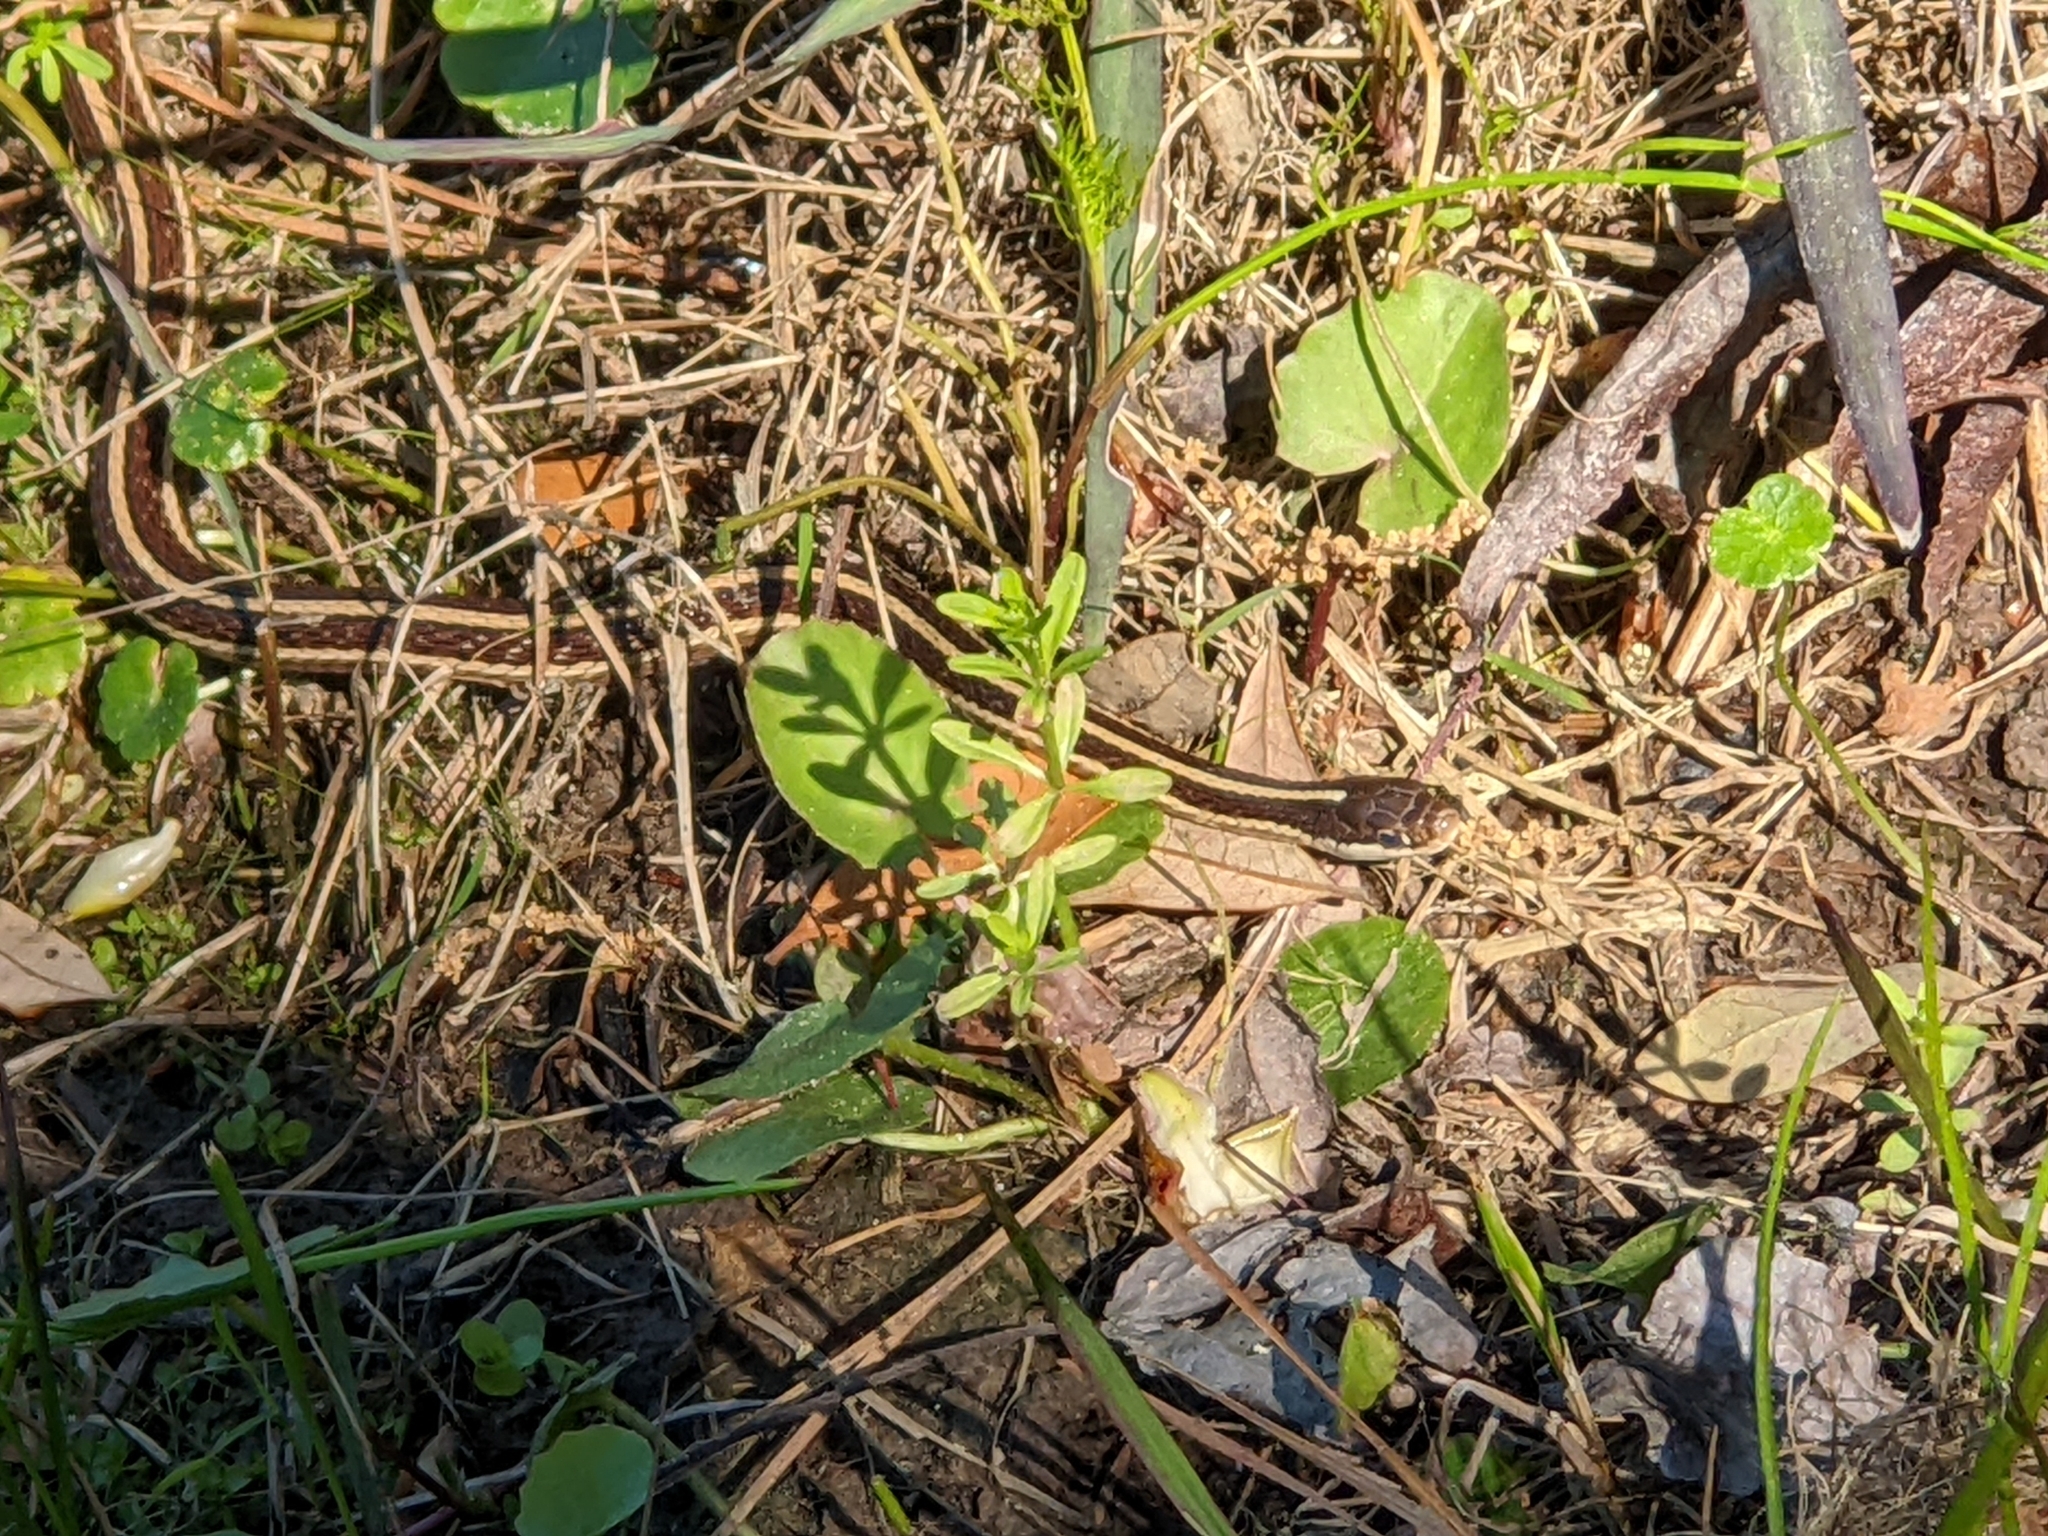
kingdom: Animalia
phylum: Chordata
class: Squamata
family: Colubridae
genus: Thamnophis
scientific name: Thamnophis saurita
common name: Eastern ribbonsnake
